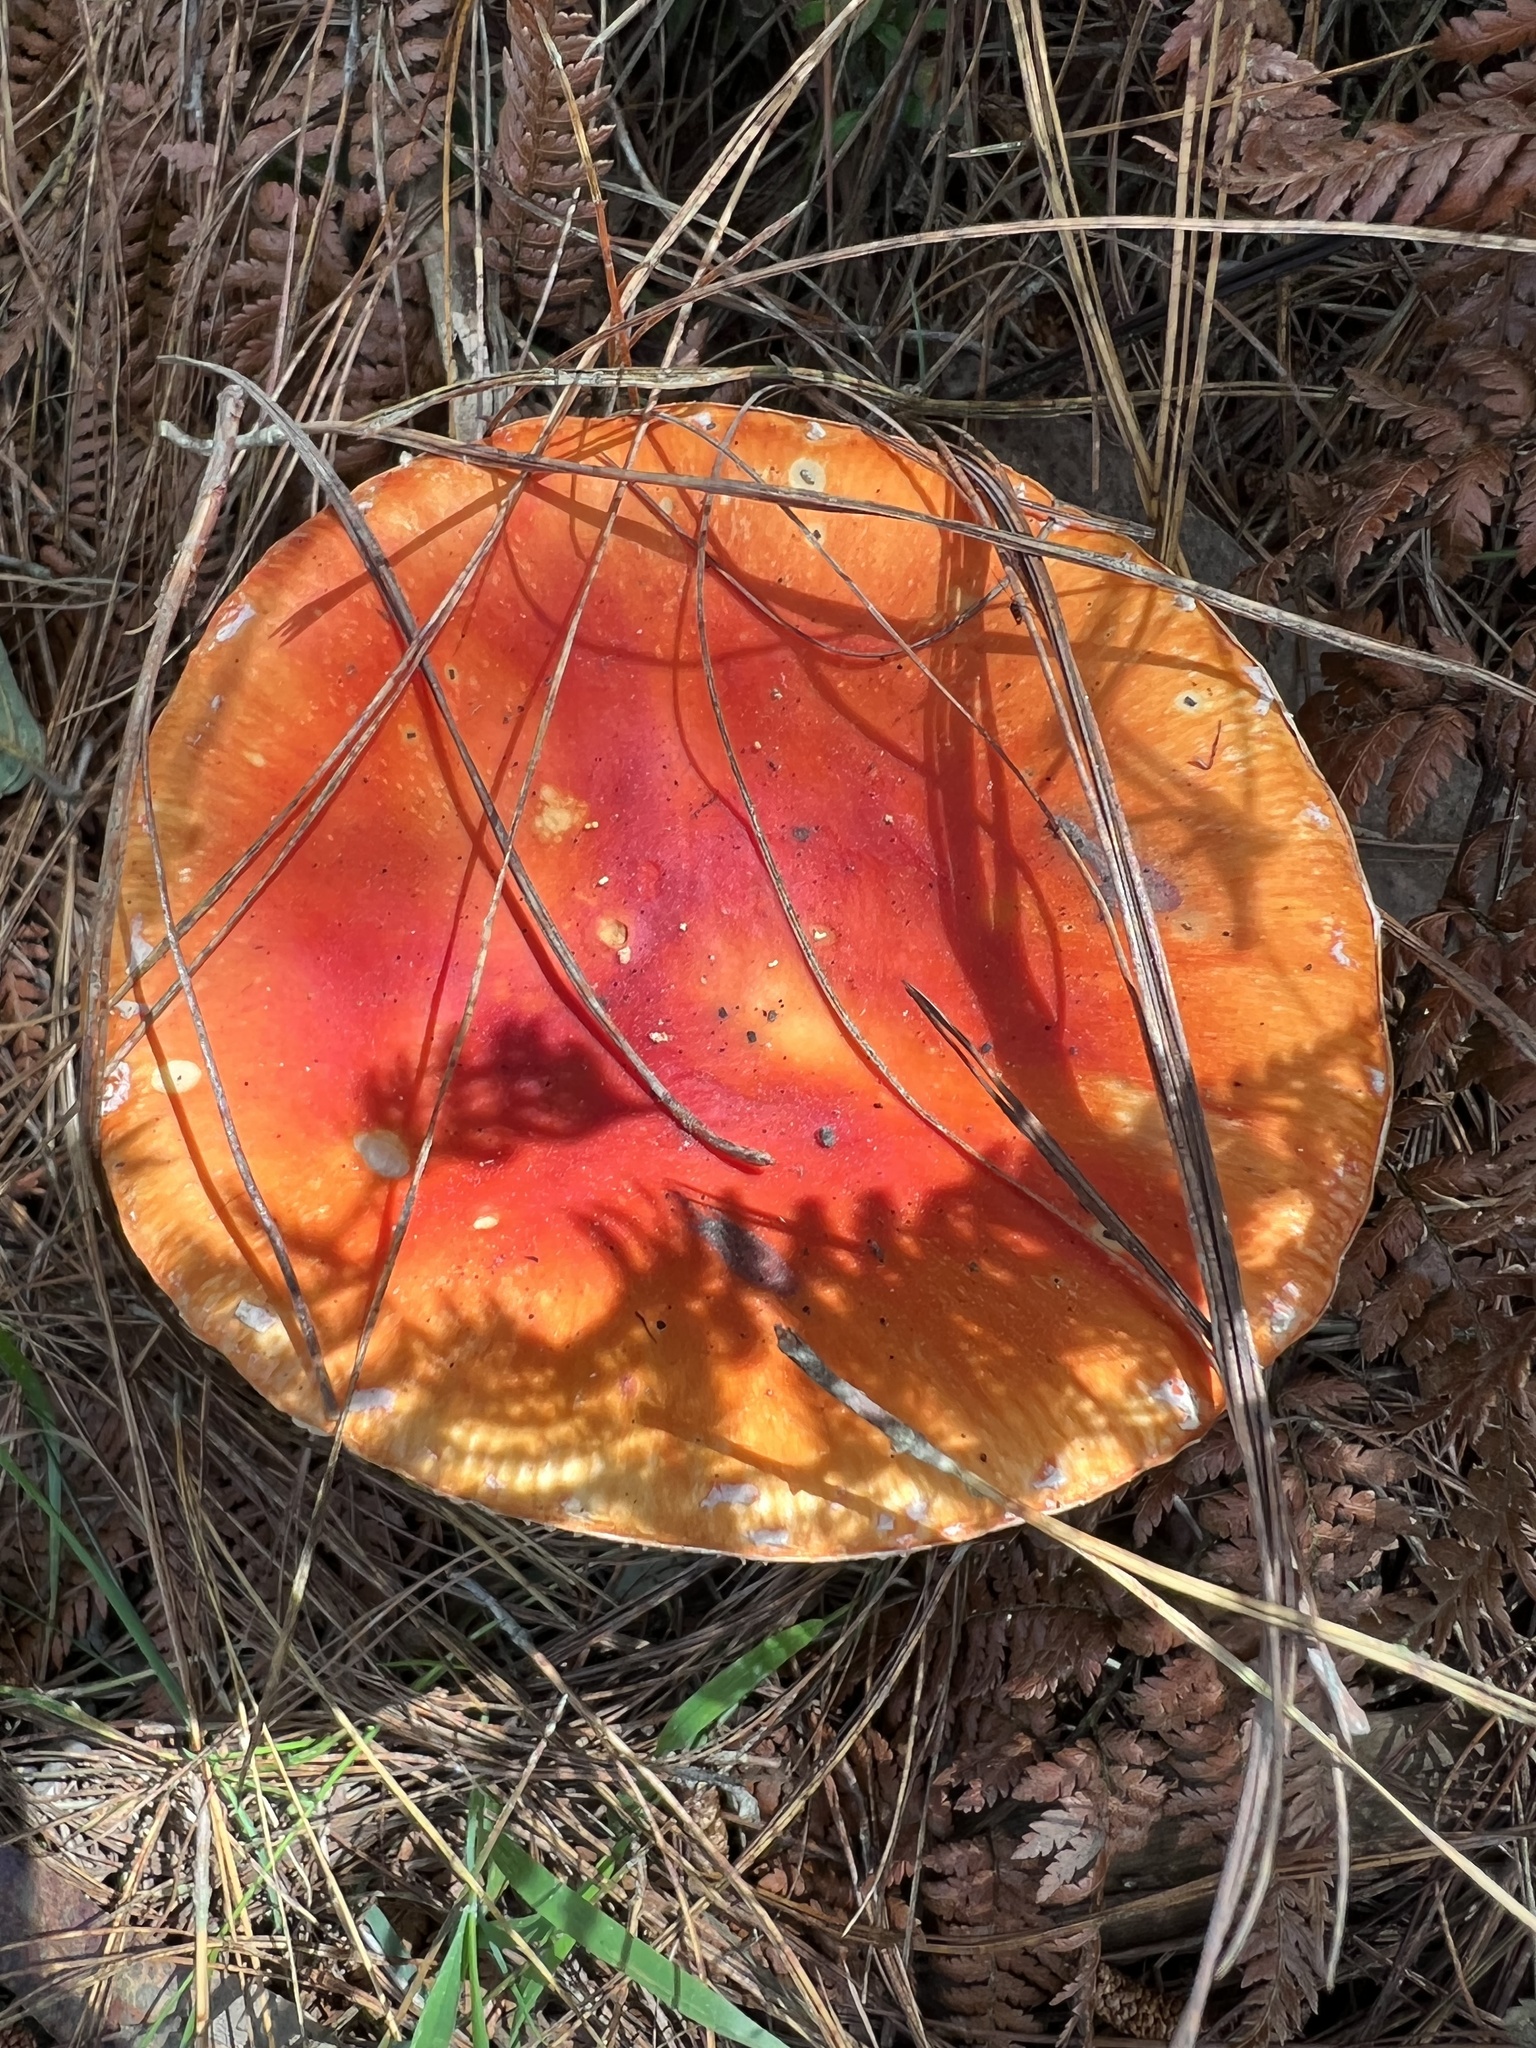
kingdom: Fungi
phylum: Basidiomycota
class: Agaricomycetes
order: Agaricales
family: Amanitaceae
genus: Amanita
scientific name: Amanita muscaria
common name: Fly agaric
